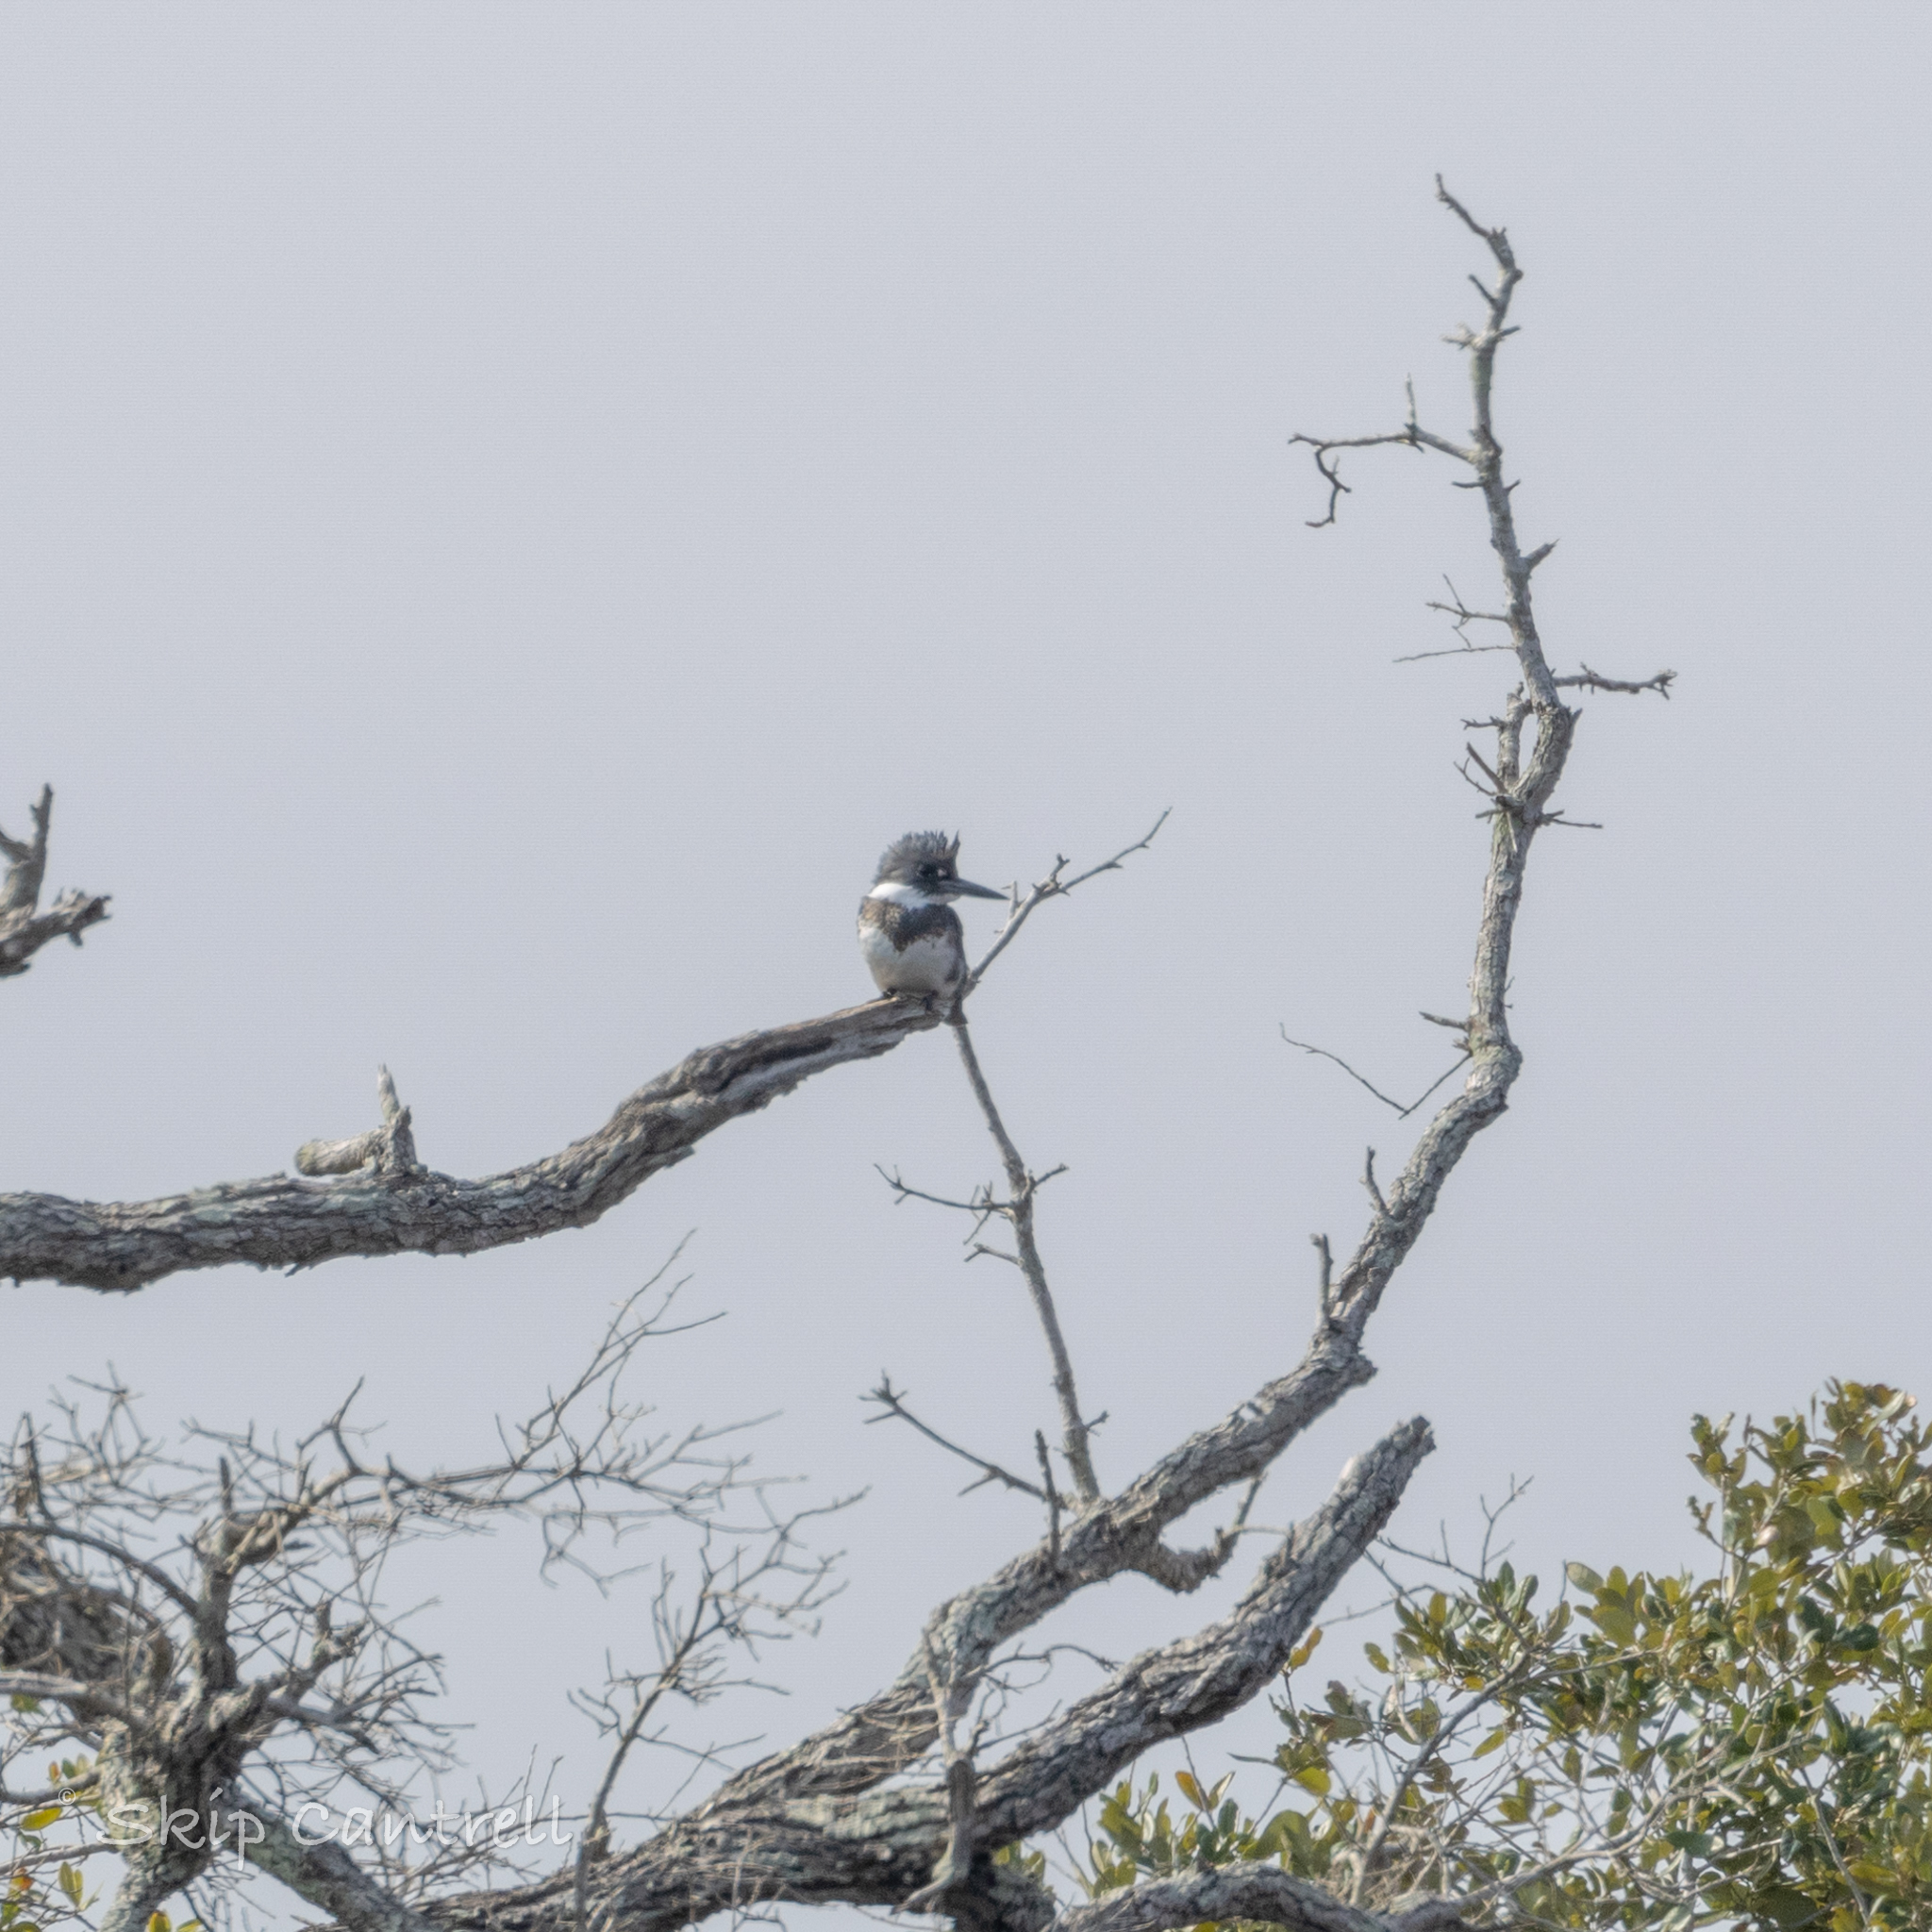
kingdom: Animalia
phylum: Chordata
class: Aves
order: Coraciiformes
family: Alcedinidae
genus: Megaceryle
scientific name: Megaceryle alcyon
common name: Belted kingfisher
